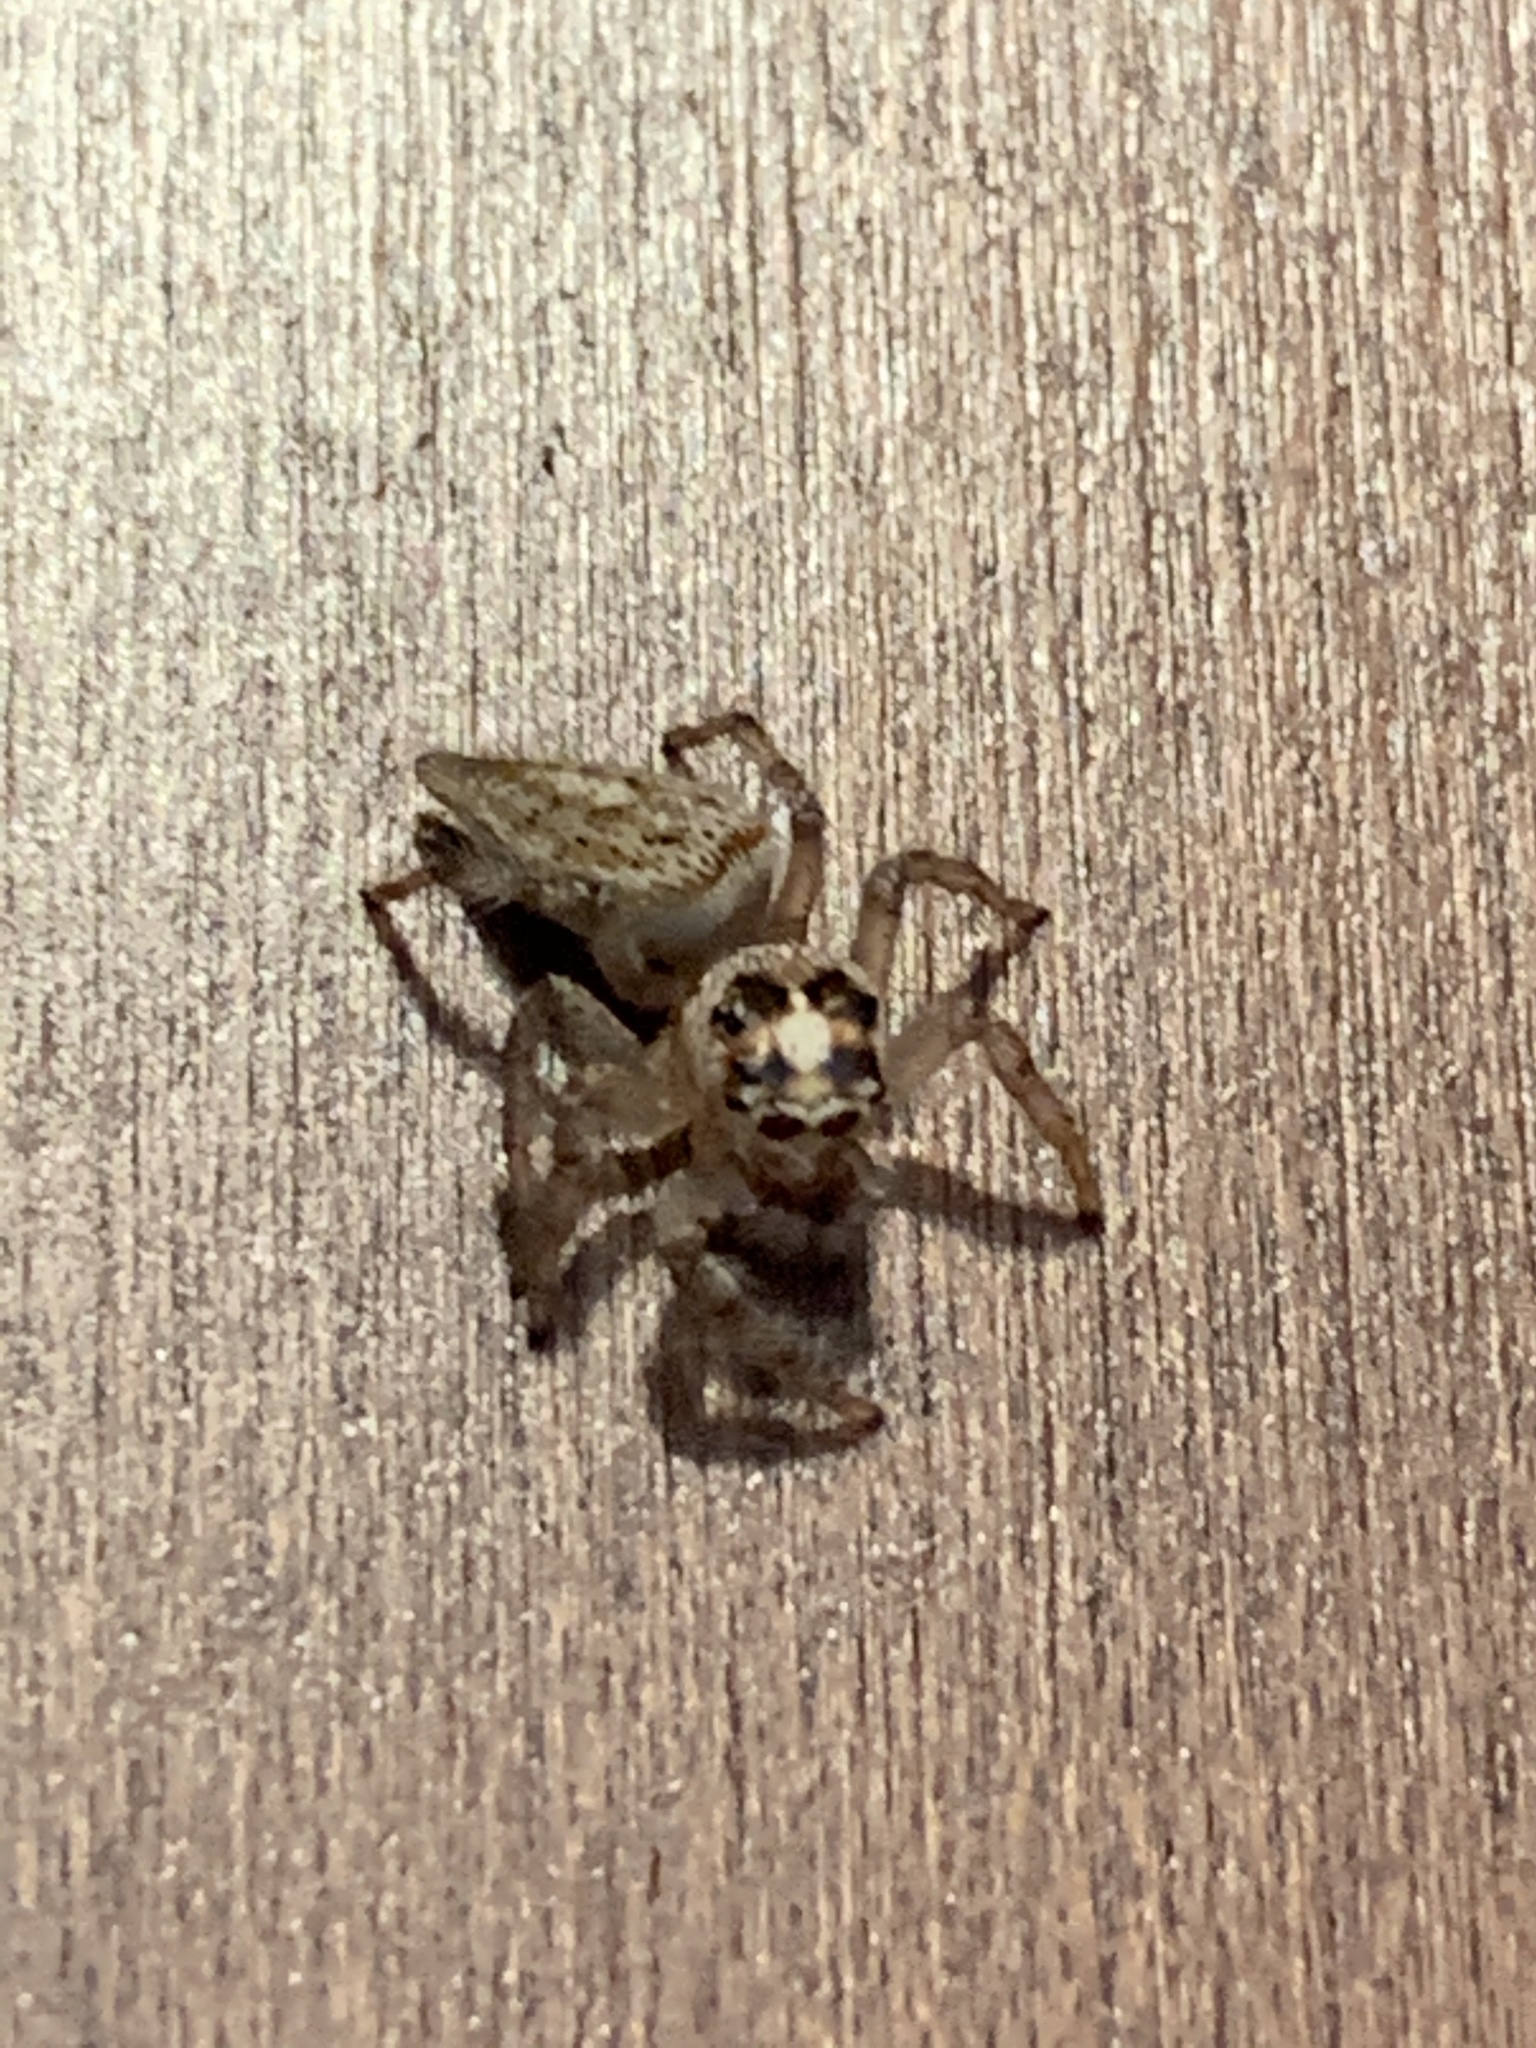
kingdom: Animalia
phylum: Arthropoda
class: Arachnida
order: Araneae
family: Salticidae
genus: Colonus
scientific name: Colonus hesperus
